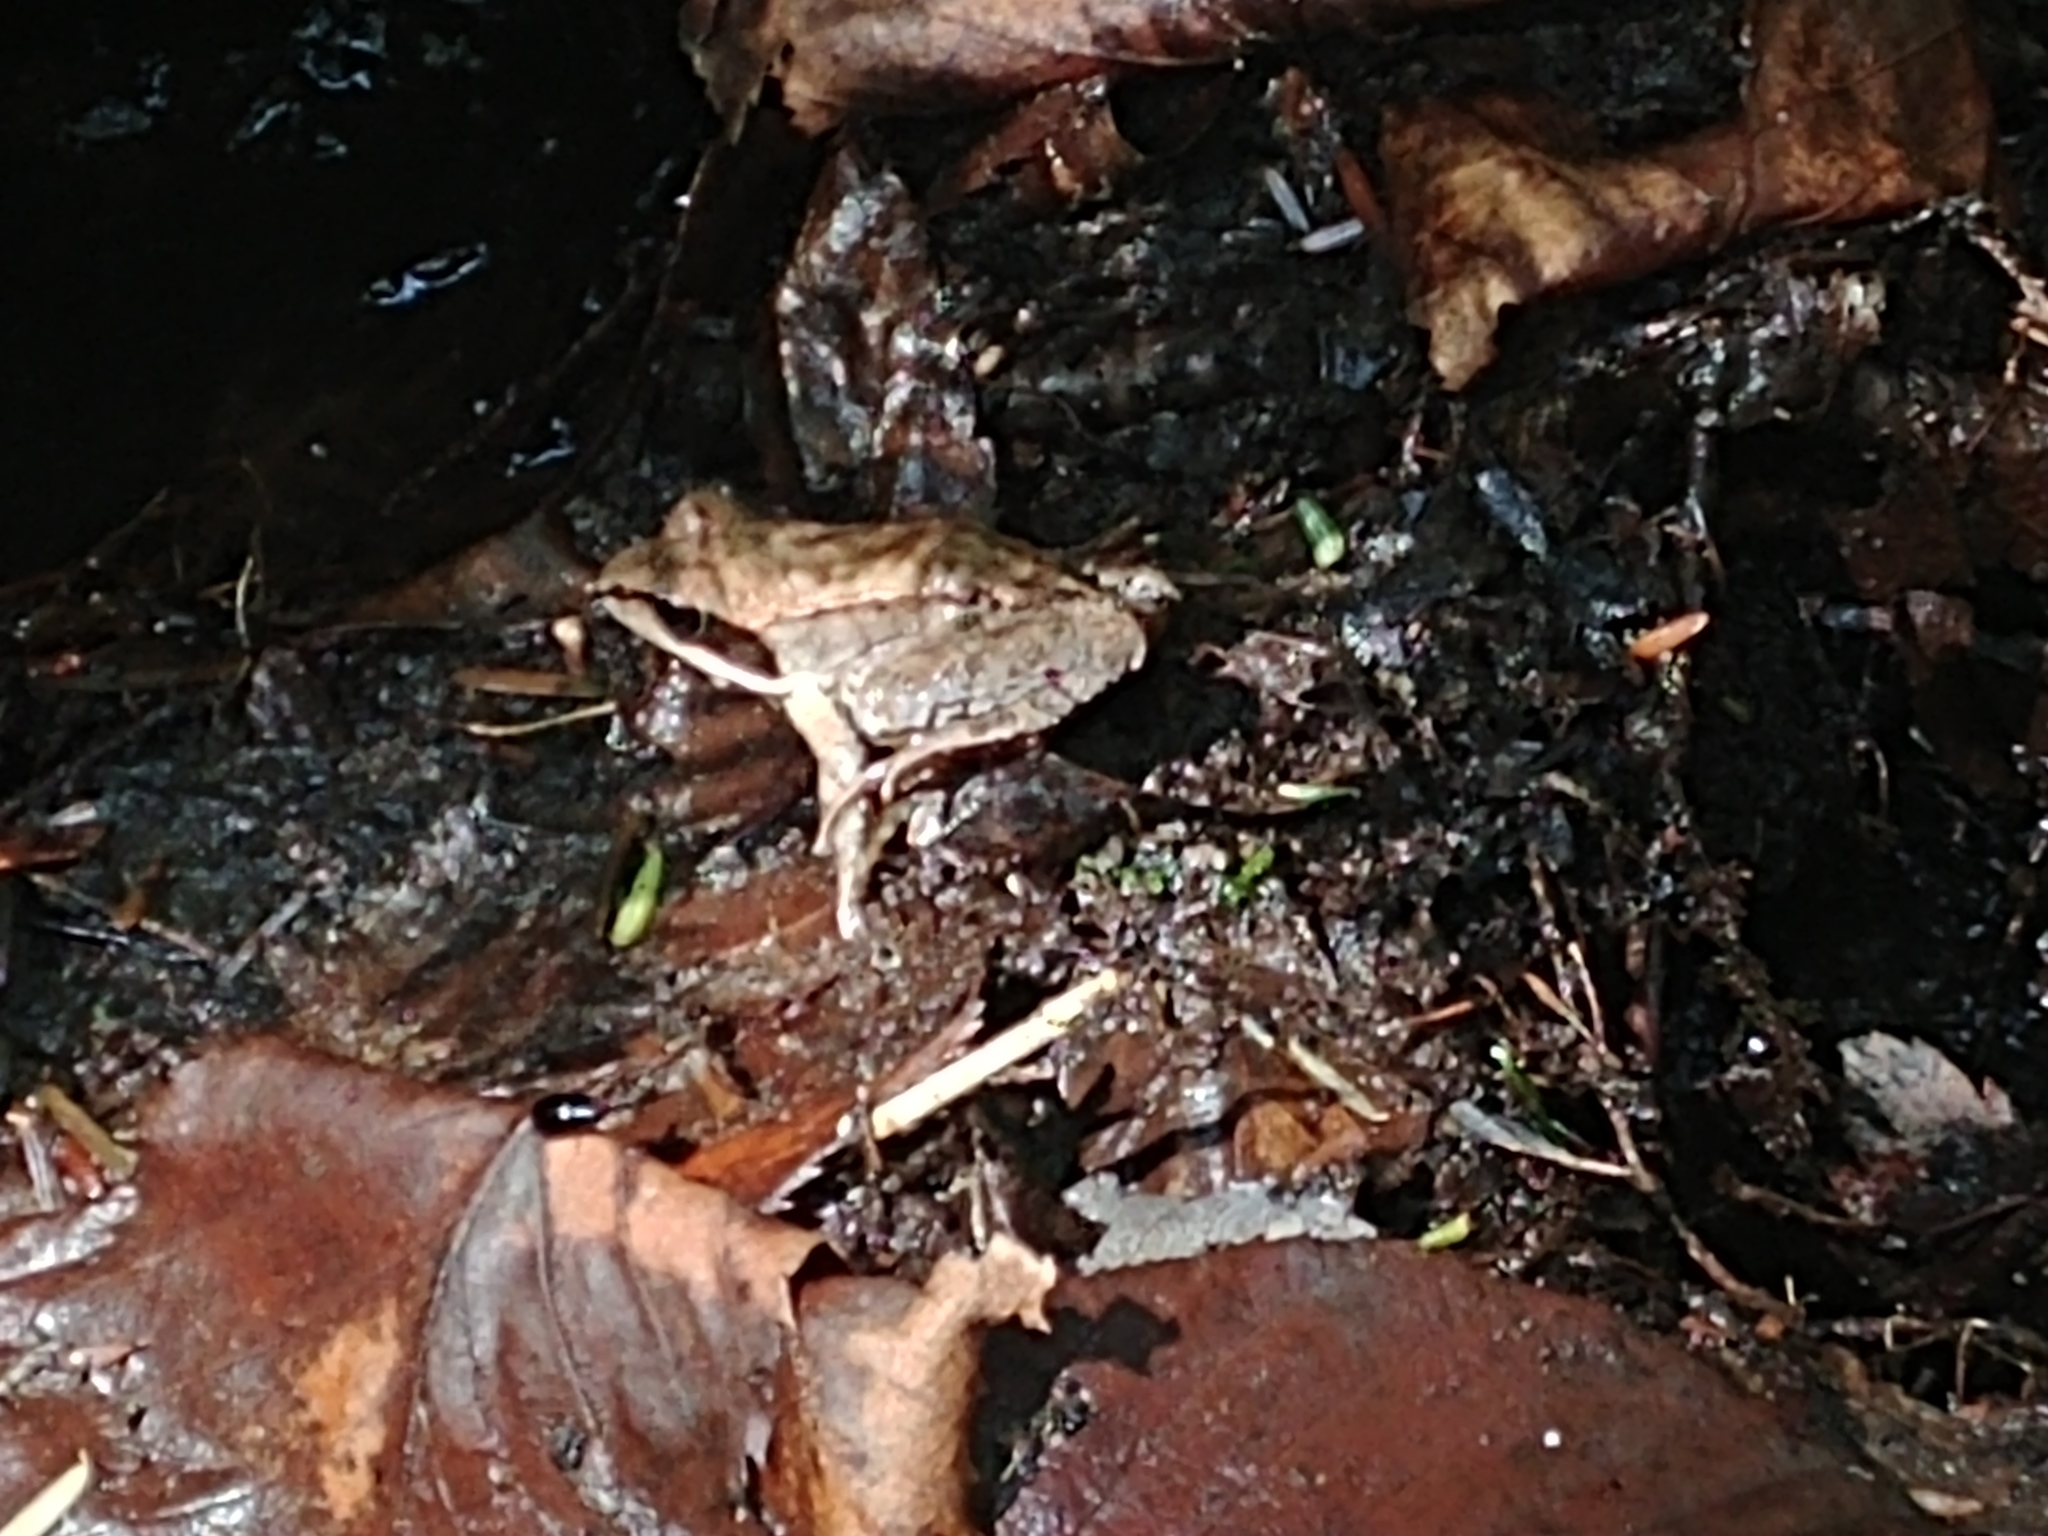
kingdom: Animalia
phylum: Chordata
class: Amphibia
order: Anura
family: Ranidae
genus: Lithobates
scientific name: Lithobates sylvaticus
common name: Wood frog
